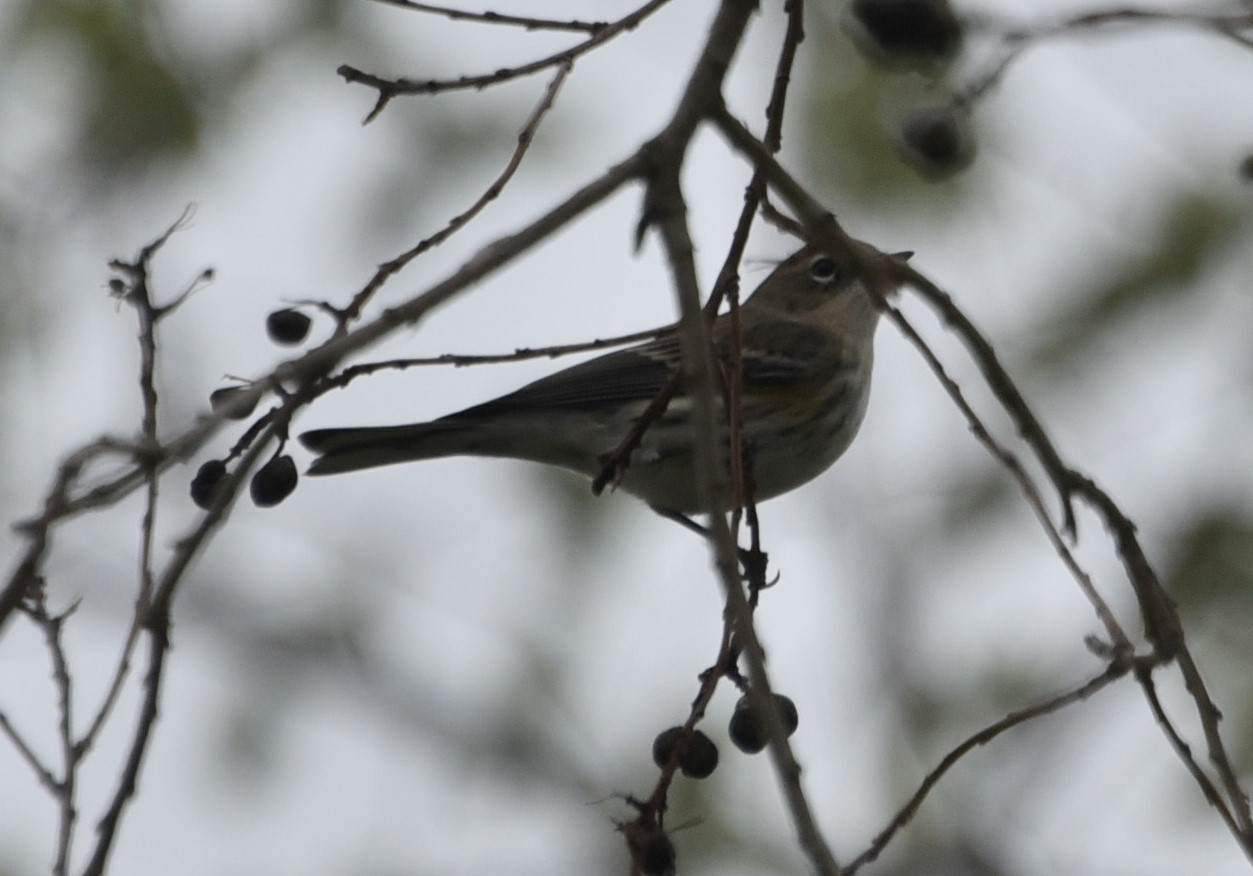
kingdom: Animalia
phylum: Chordata
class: Aves
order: Passeriformes
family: Parulidae
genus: Setophaga
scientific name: Setophaga coronata
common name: Myrtle warbler
